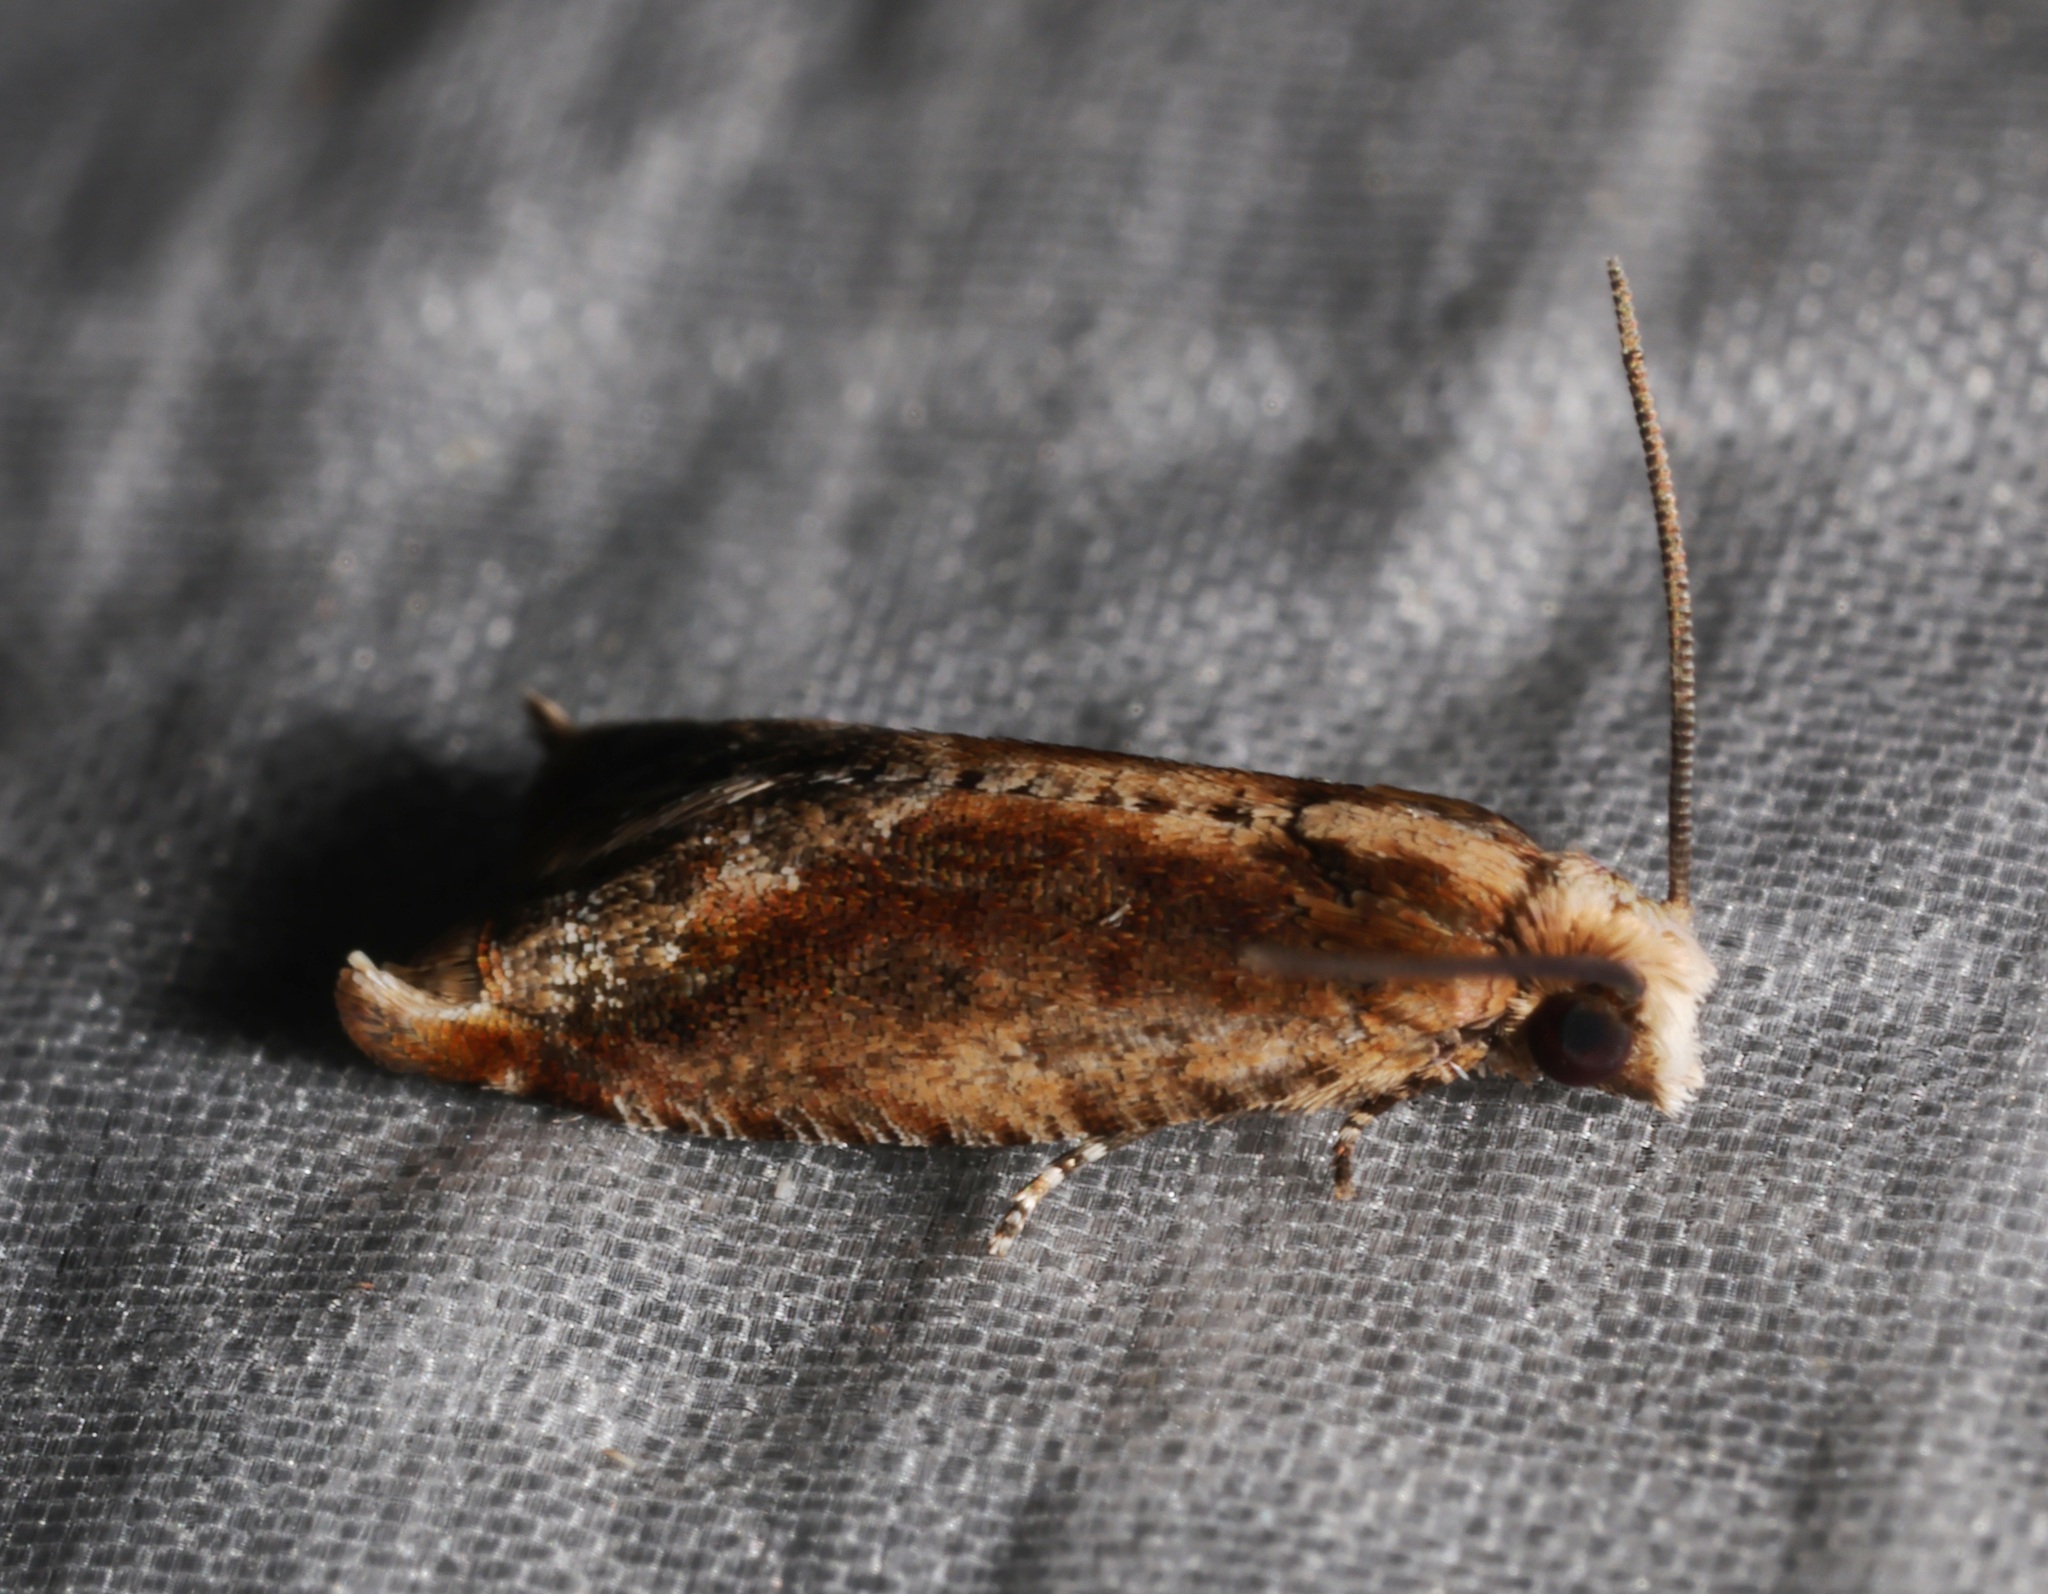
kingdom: Animalia
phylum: Arthropoda
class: Insecta
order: Lepidoptera
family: Tortricidae
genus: Spilonota
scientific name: Spilonota mortuana
